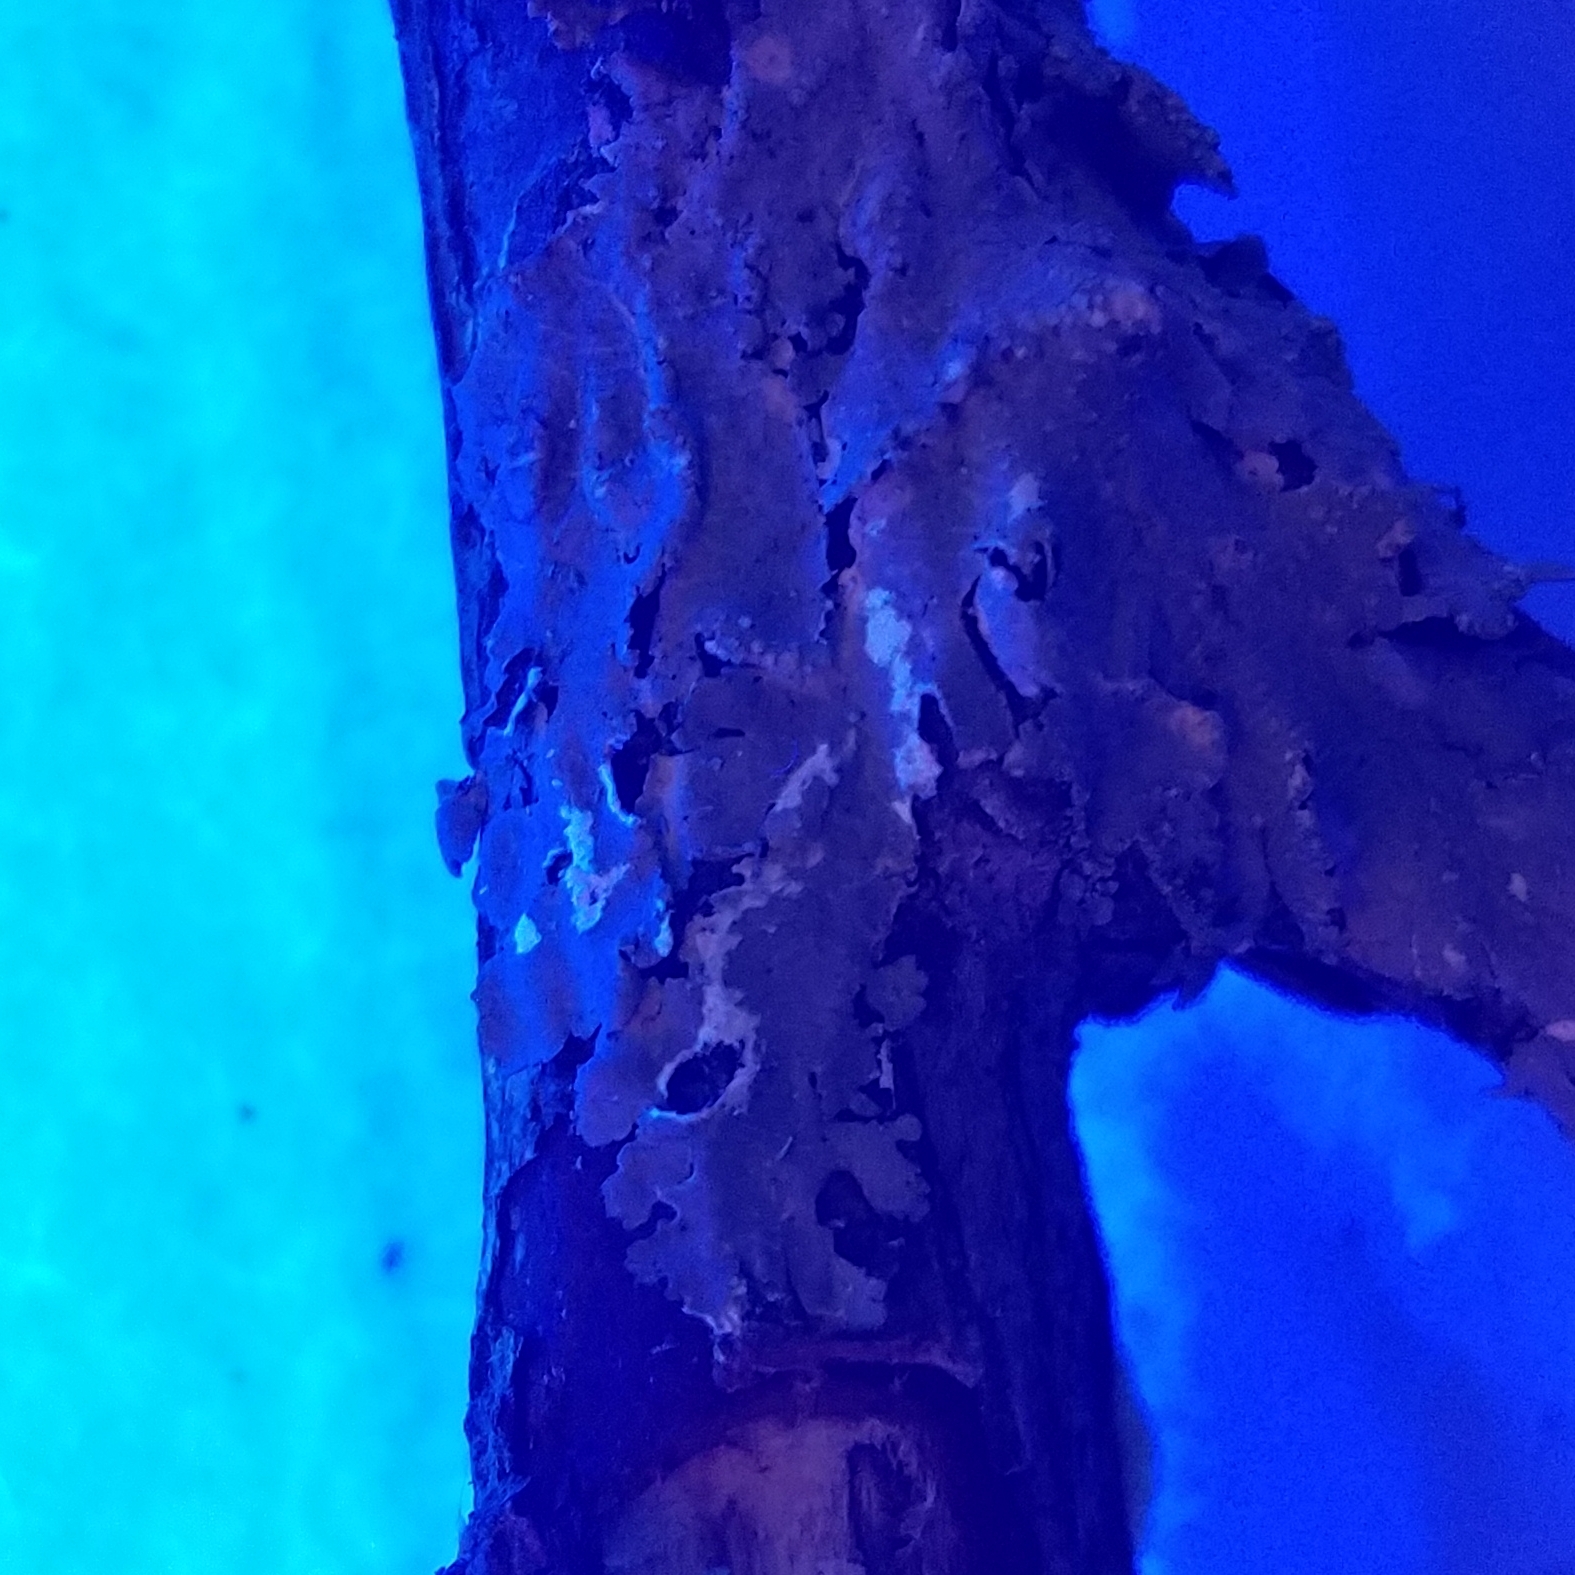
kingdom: Fungi
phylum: Ascomycota
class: Lecanoromycetes
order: Lecanorales
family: Parmeliaceae
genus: Canoparmelia
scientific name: Canoparmelia texana
